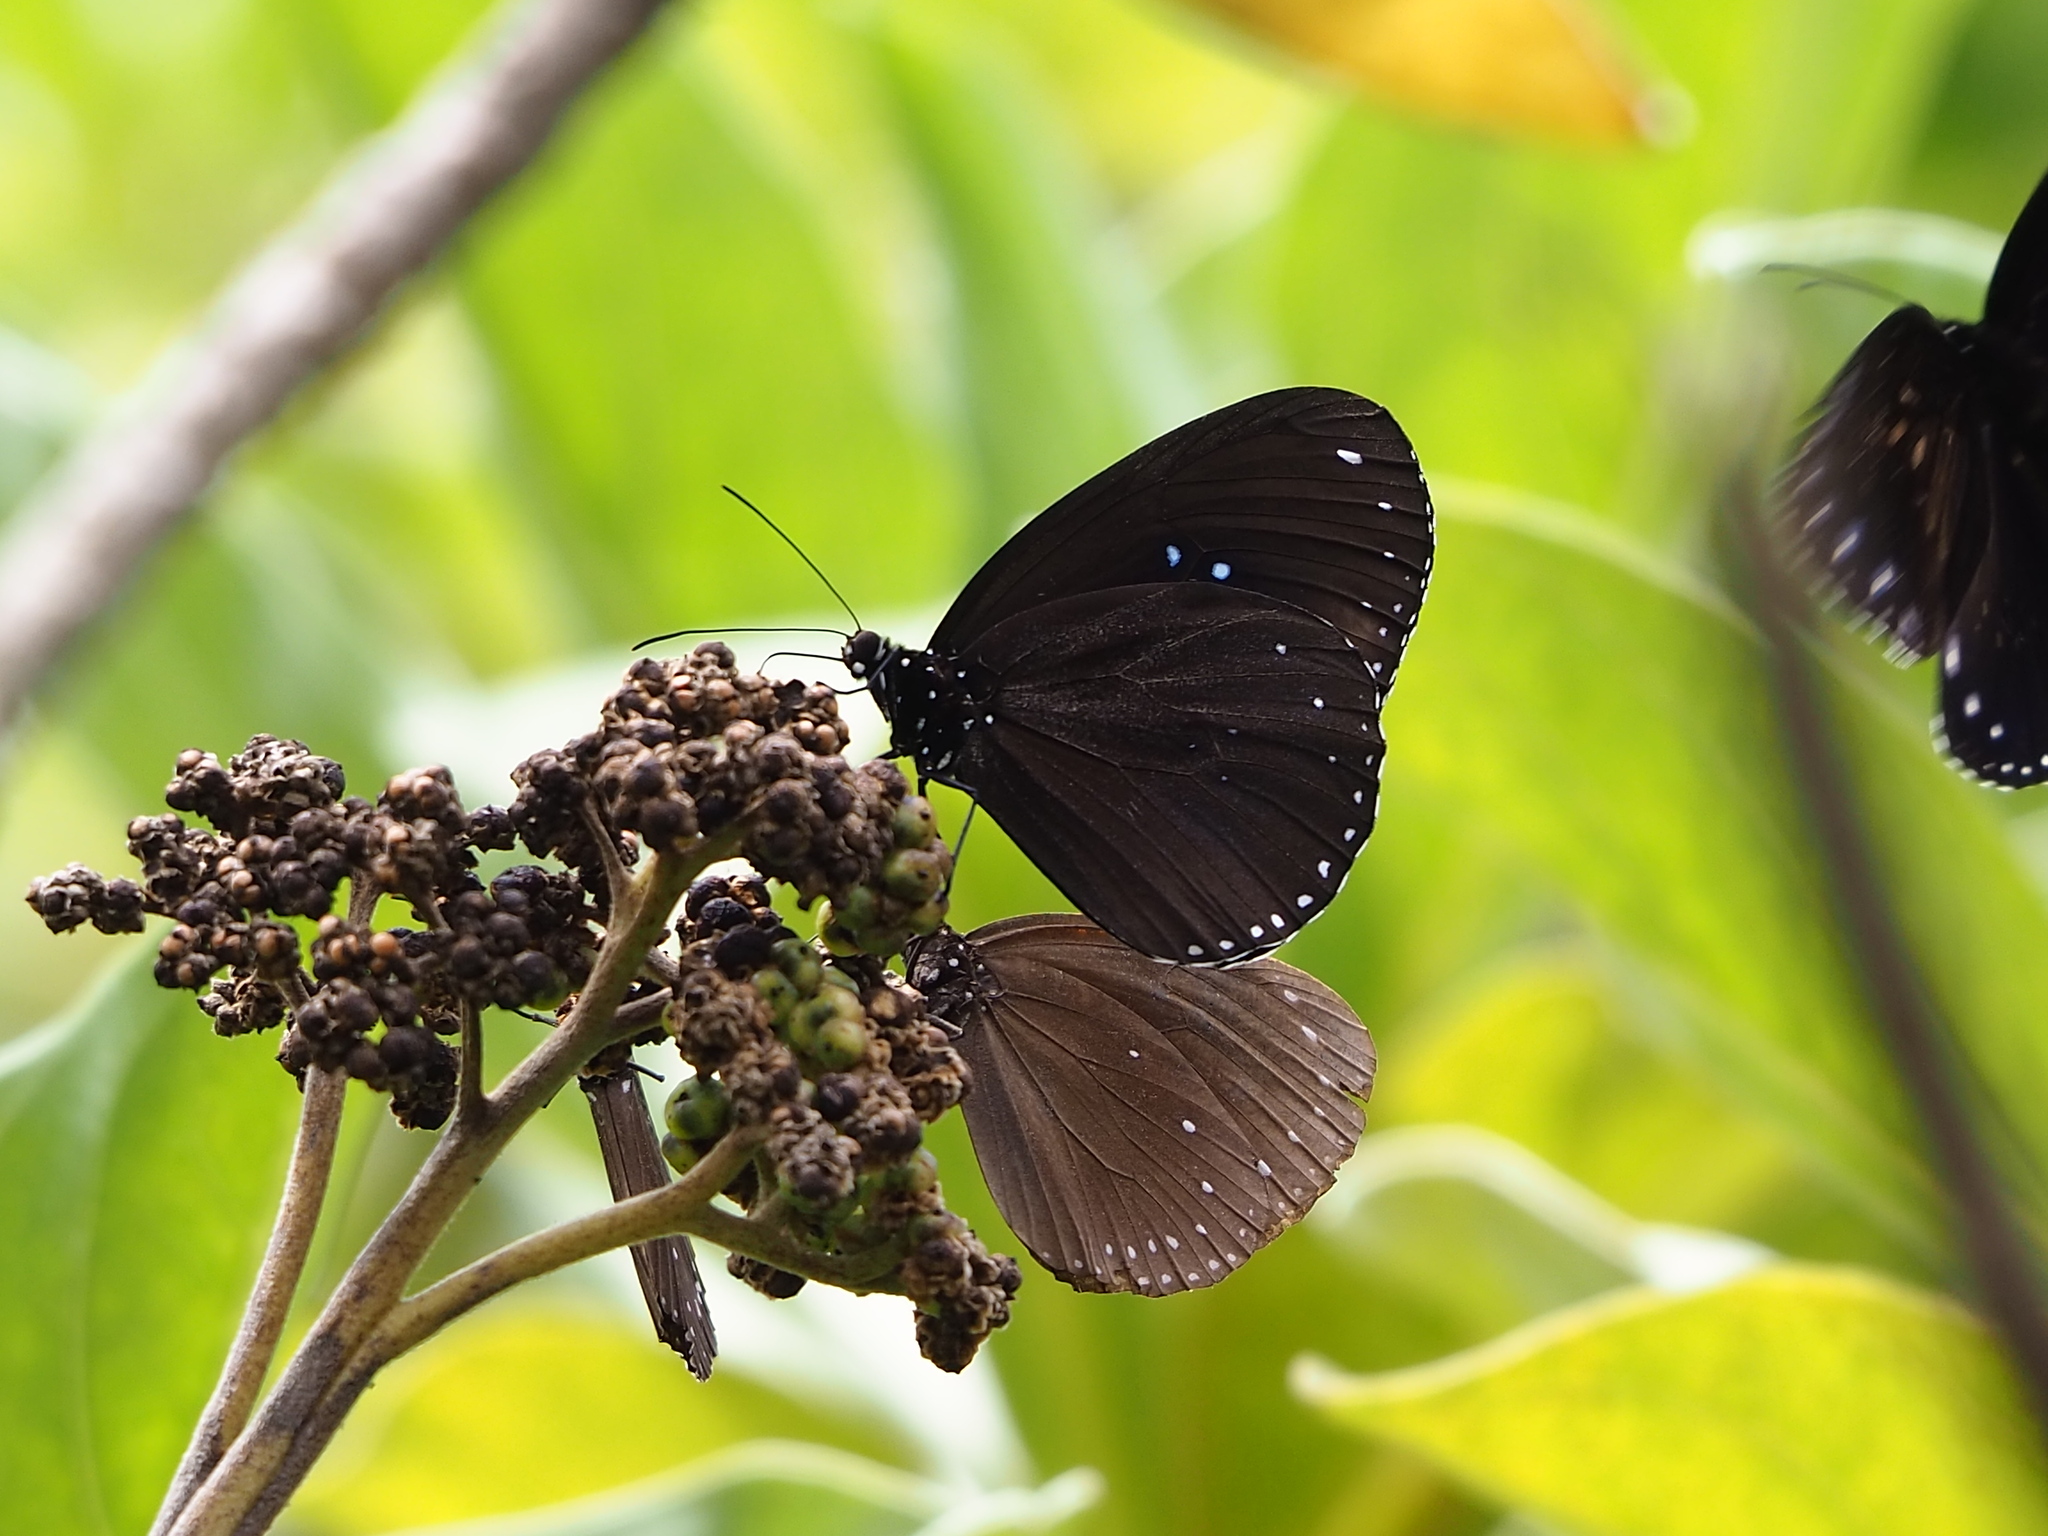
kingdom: Animalia
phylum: Arthropoda
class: Insecta
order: Lepidoptera
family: Nymphalidae
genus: Euploea
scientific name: Euploea sylvester
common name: Double-branded crow butterfly
